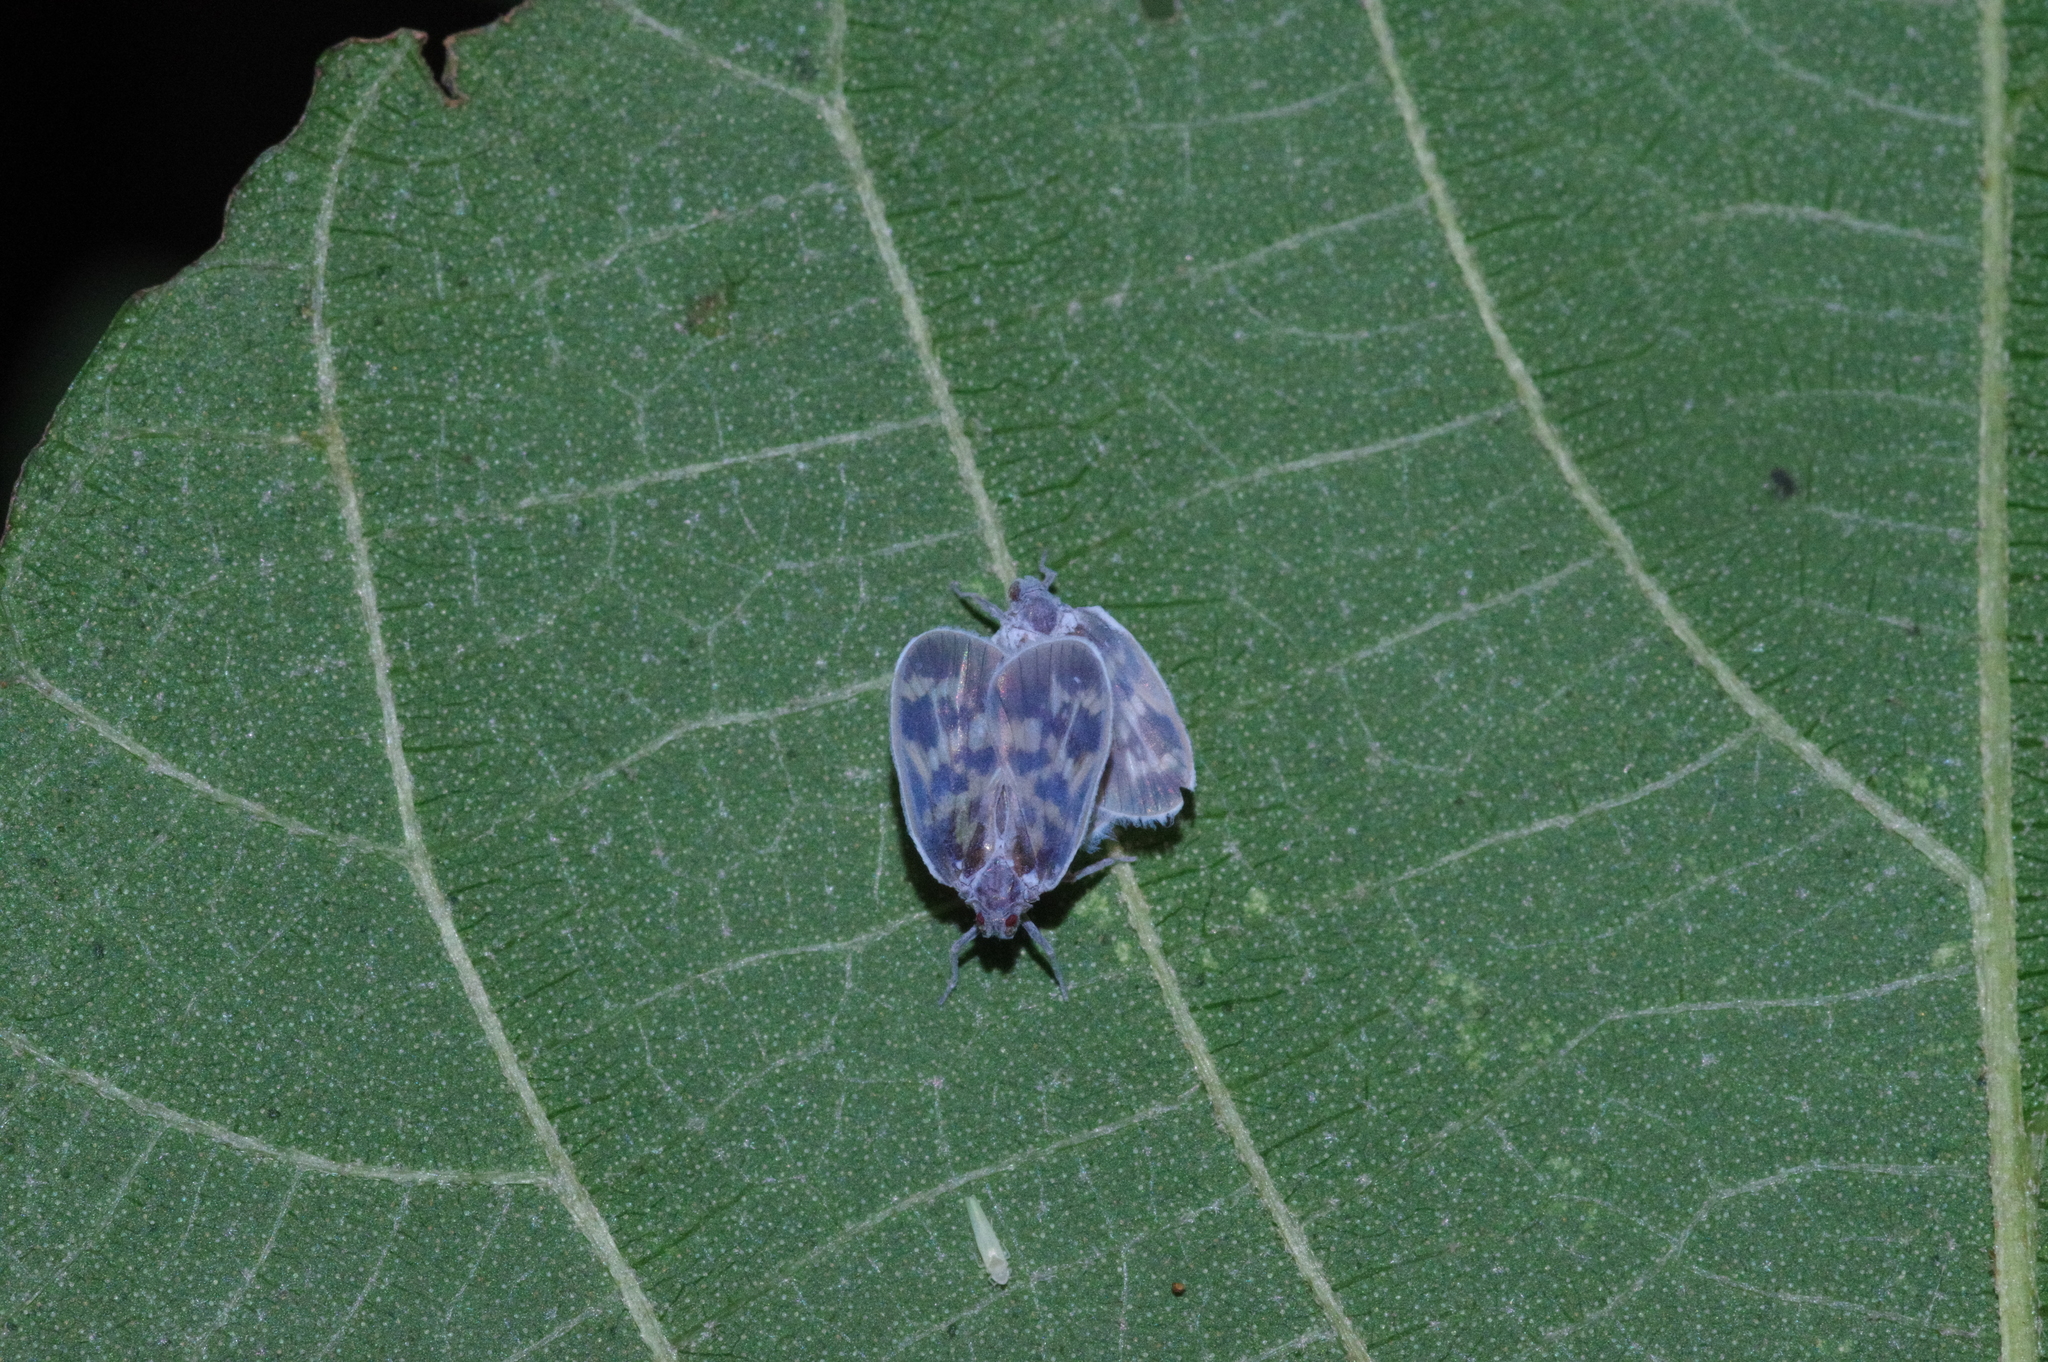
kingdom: Animalia
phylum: Arthropoda
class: Insecta
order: Hemiptera
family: Cixiidae
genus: Borysthenes
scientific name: Borysthenes maculatus
